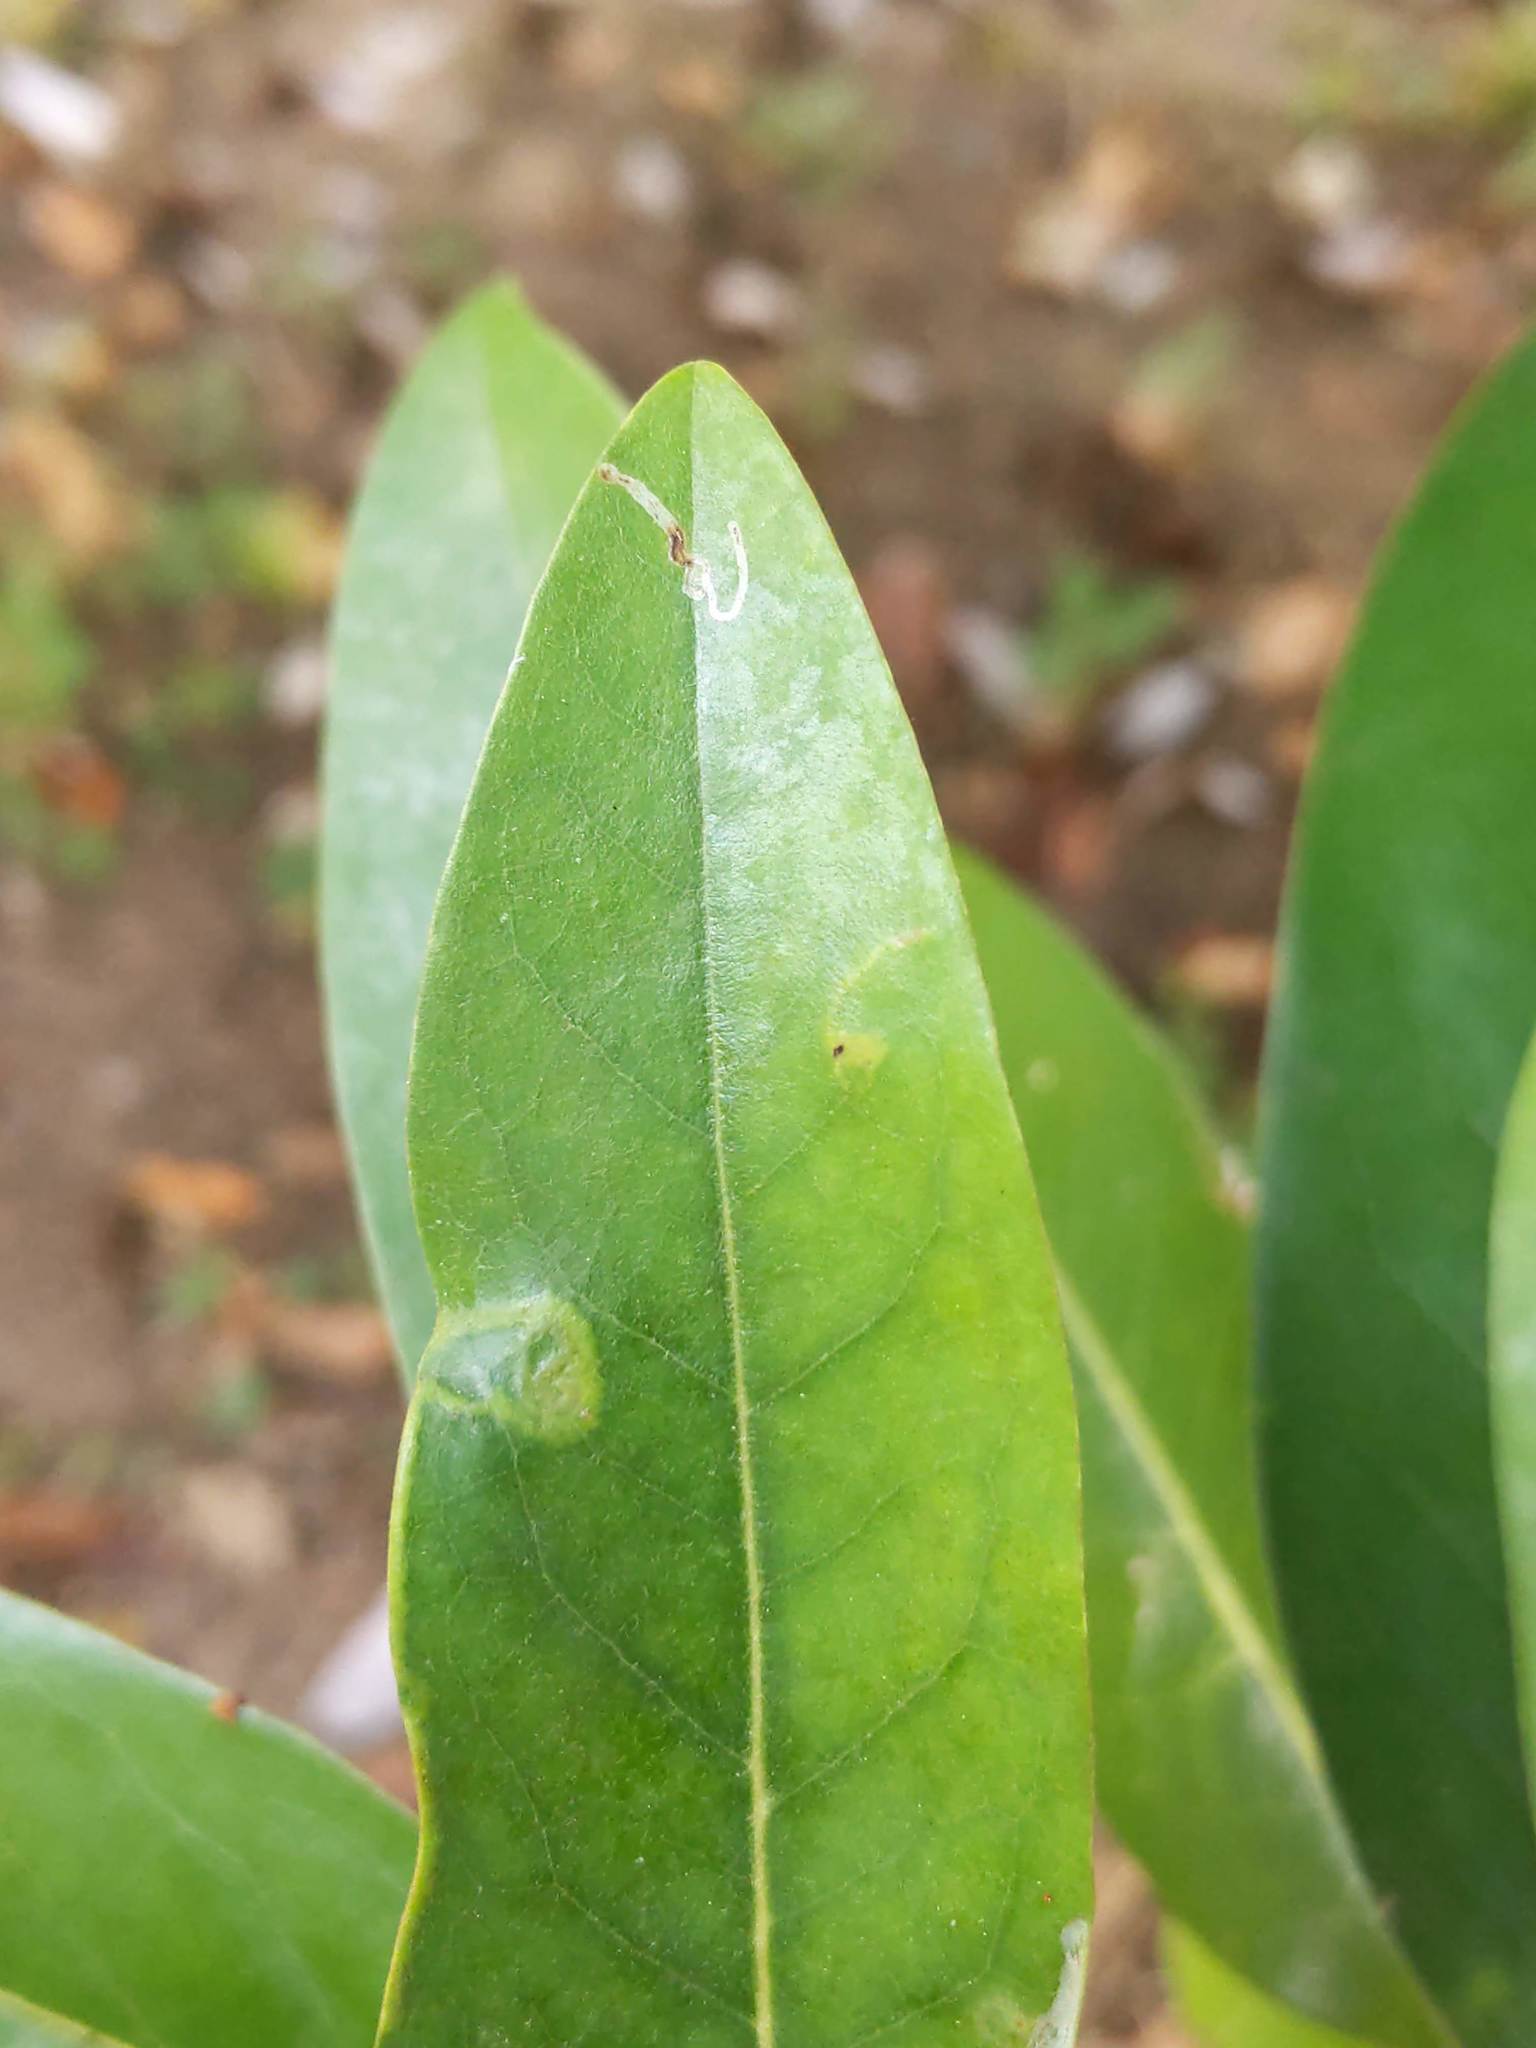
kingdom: Animalia
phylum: Arthropoda
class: Insecta
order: Lepidoptera
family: Gracillariidae
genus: Phyllocnistis
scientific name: Phyllocnistis liriodendronella
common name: Tulip tree leaf miner
